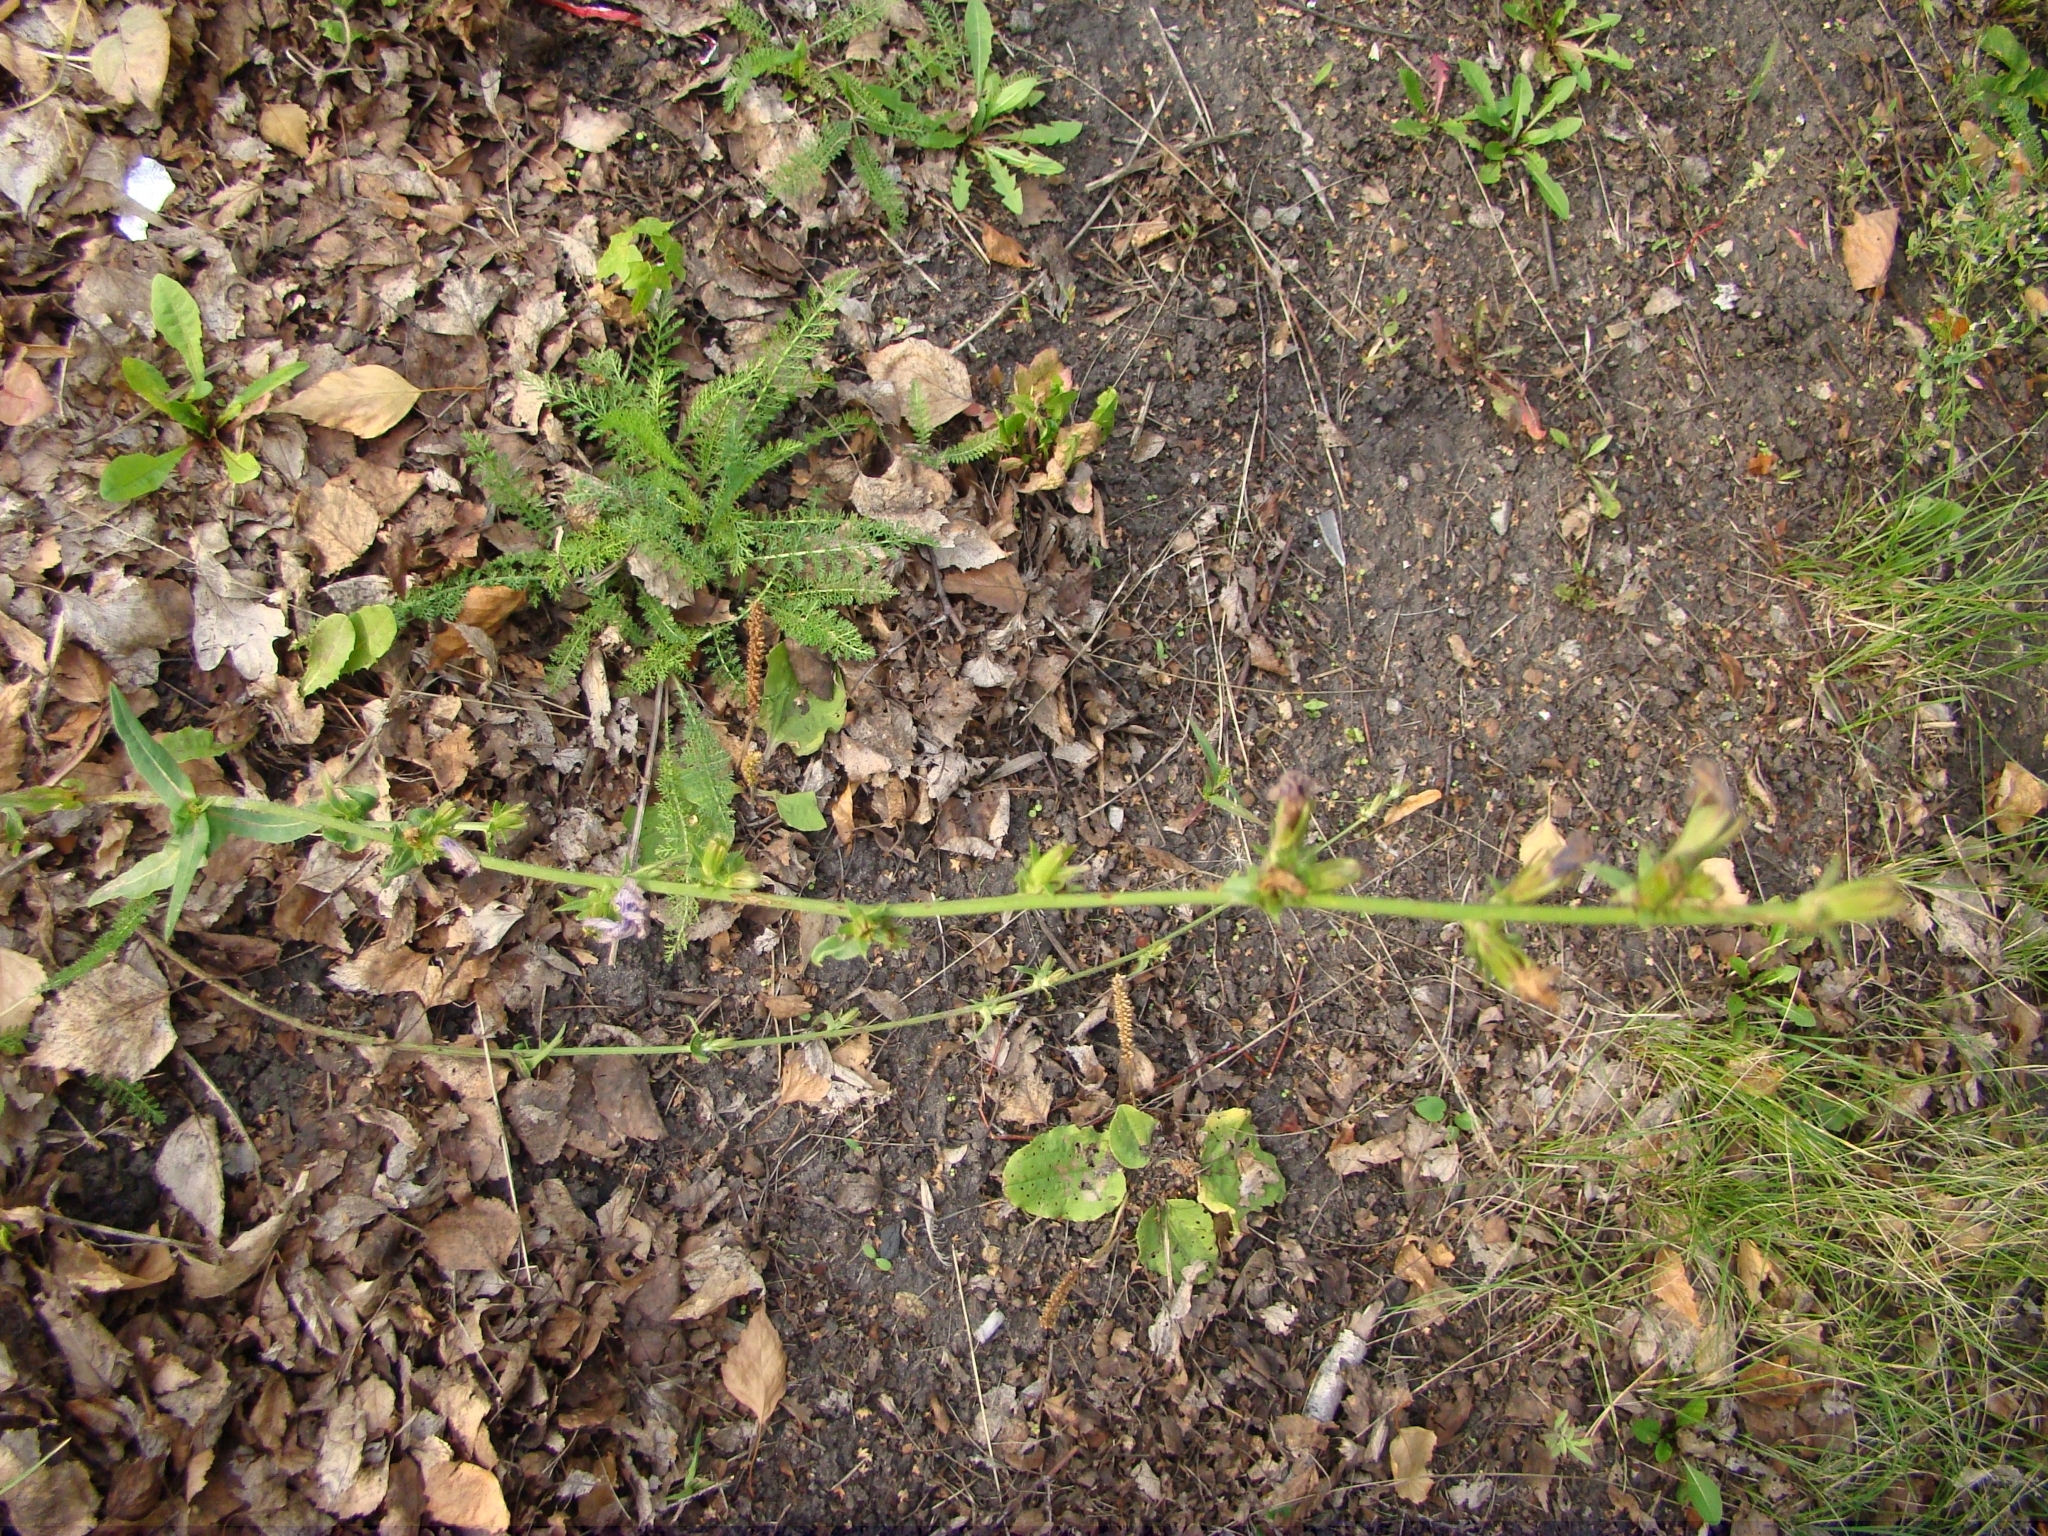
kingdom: Plantae
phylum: Tracheophyta
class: Magnoliopsida
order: Asterales
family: Asteraceae
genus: Cichorium
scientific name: Cichorium intybus
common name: Chicory
